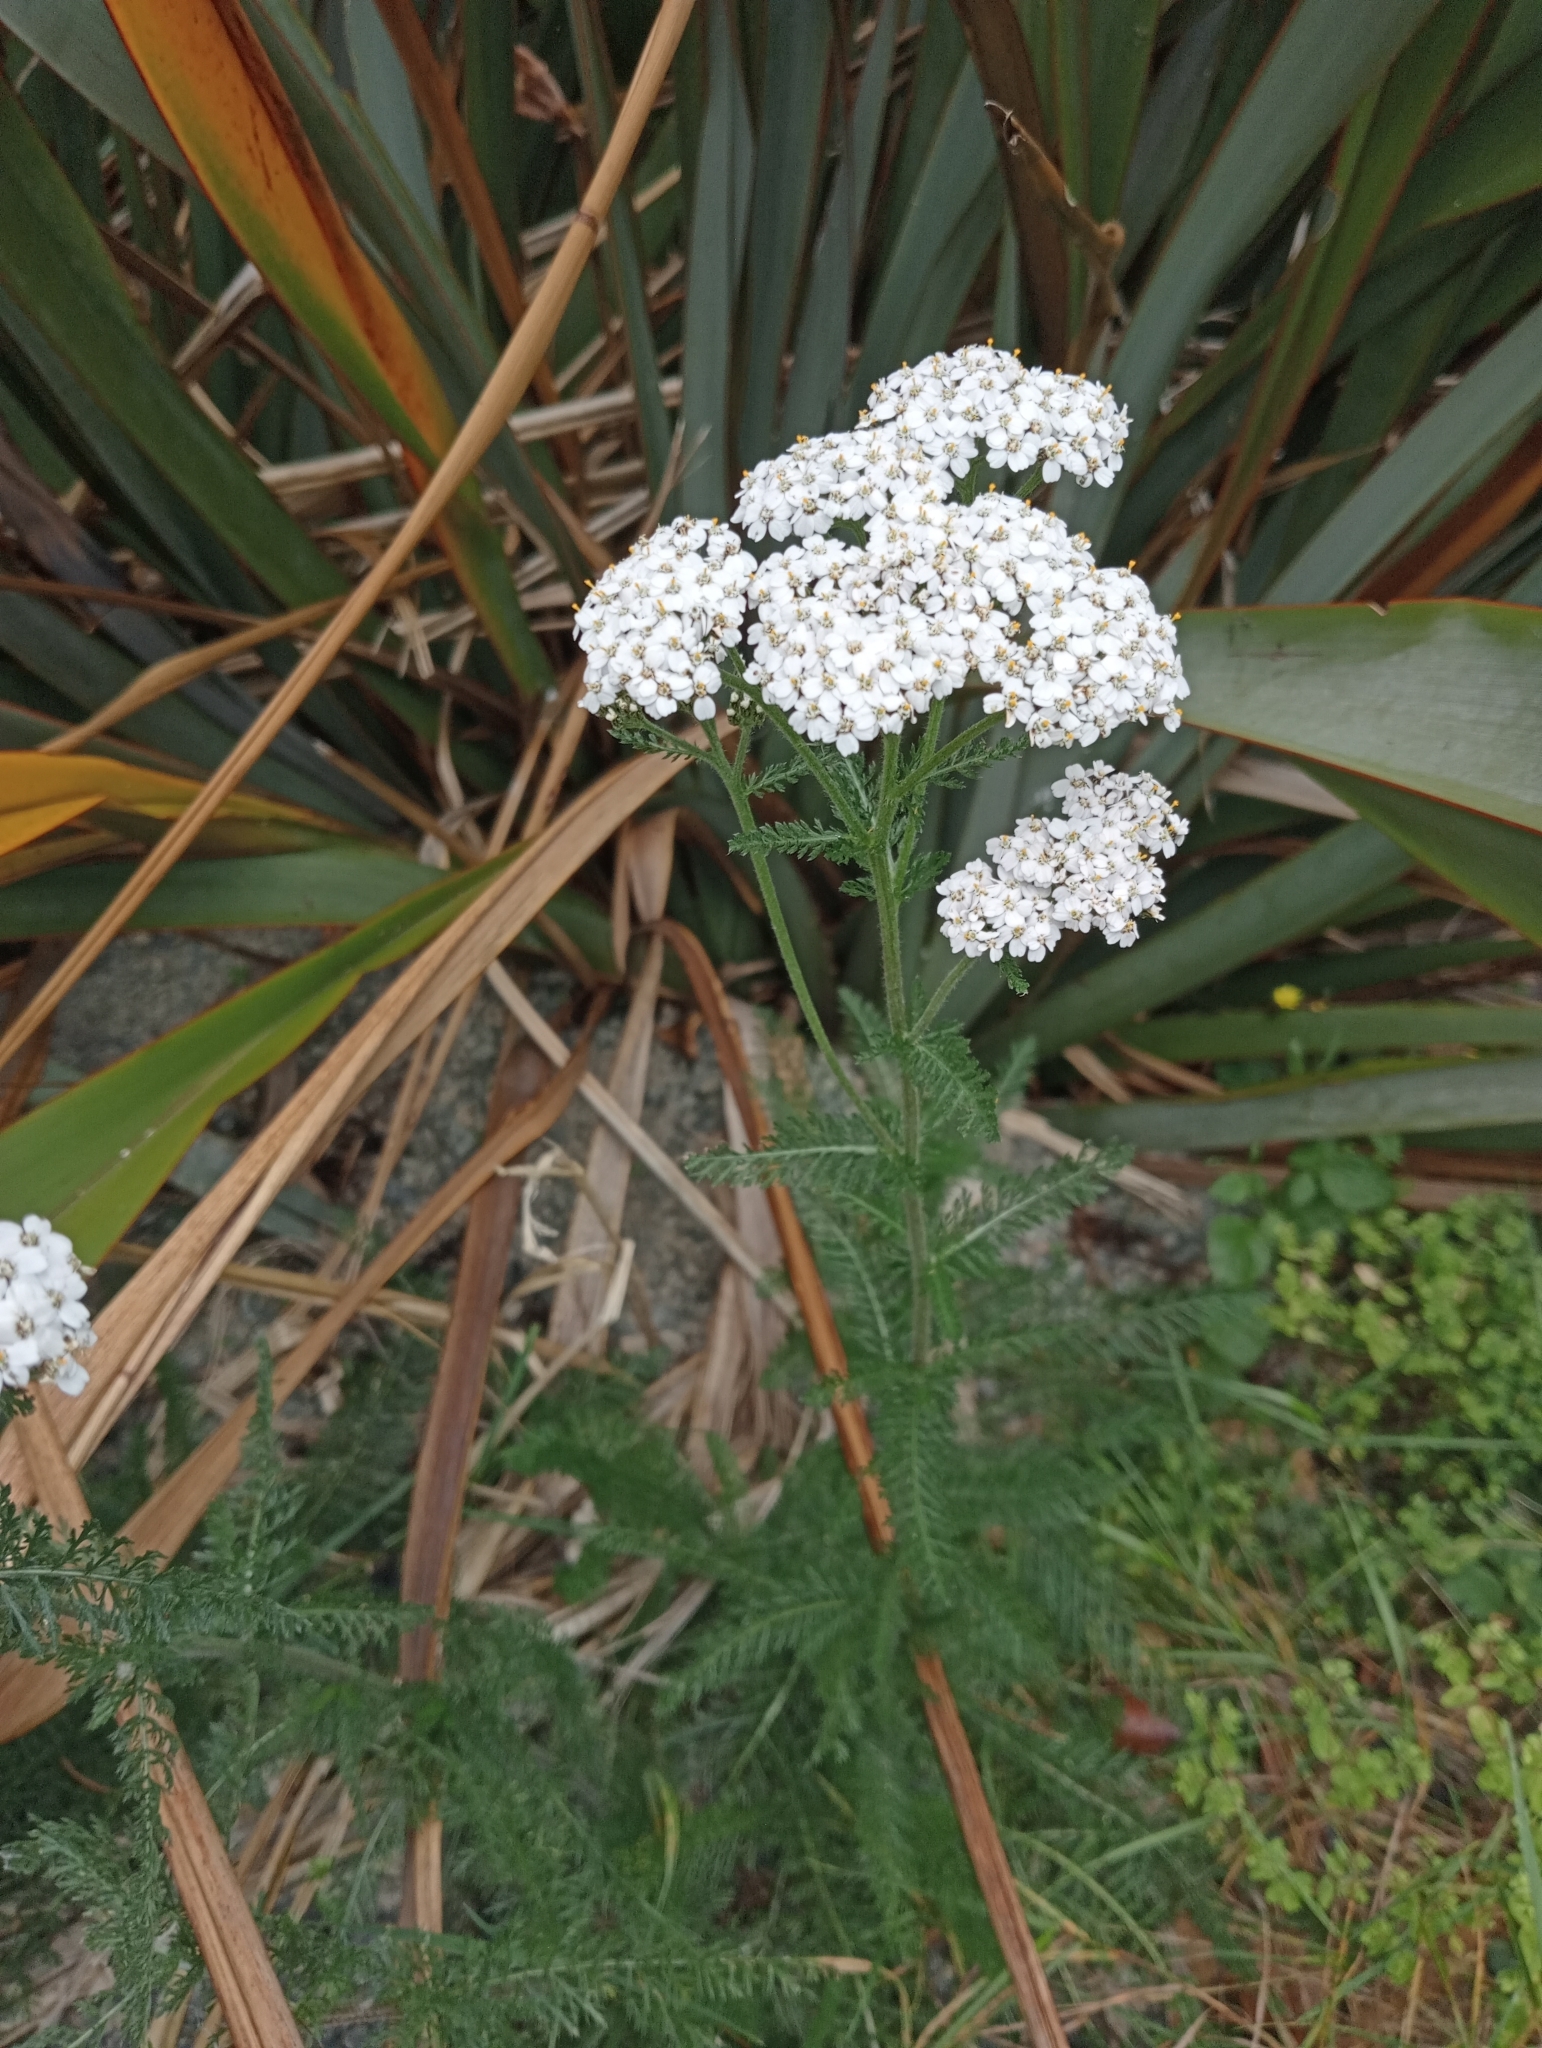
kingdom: Plantae
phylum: Tracheophyta
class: Magnoliopsida
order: Asterales
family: Asteraceae
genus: Achillea
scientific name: Achillea millefolium
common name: Yarrow
